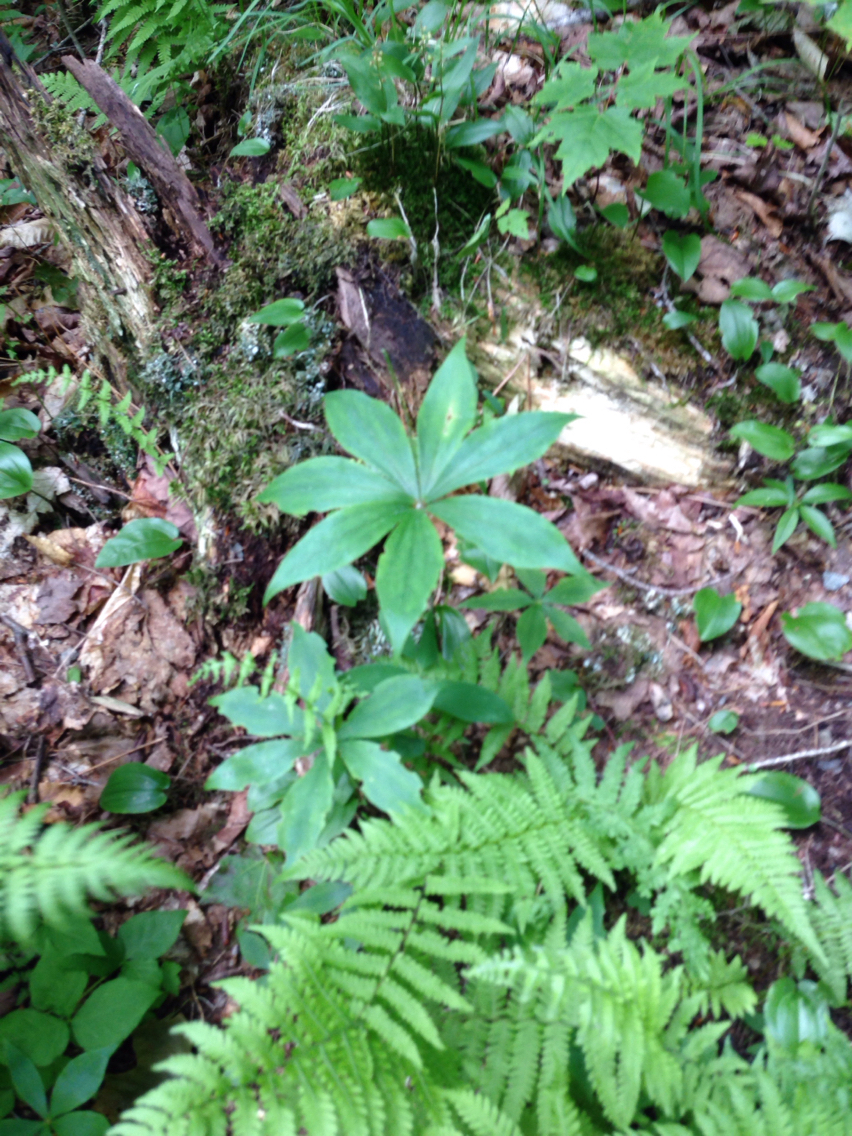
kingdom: Plantae
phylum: Tracheophyta
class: Liliopsida
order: Liliales
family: Liliaceae
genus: Medeola
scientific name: Medeola virginiana
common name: Indian cucumber-root
